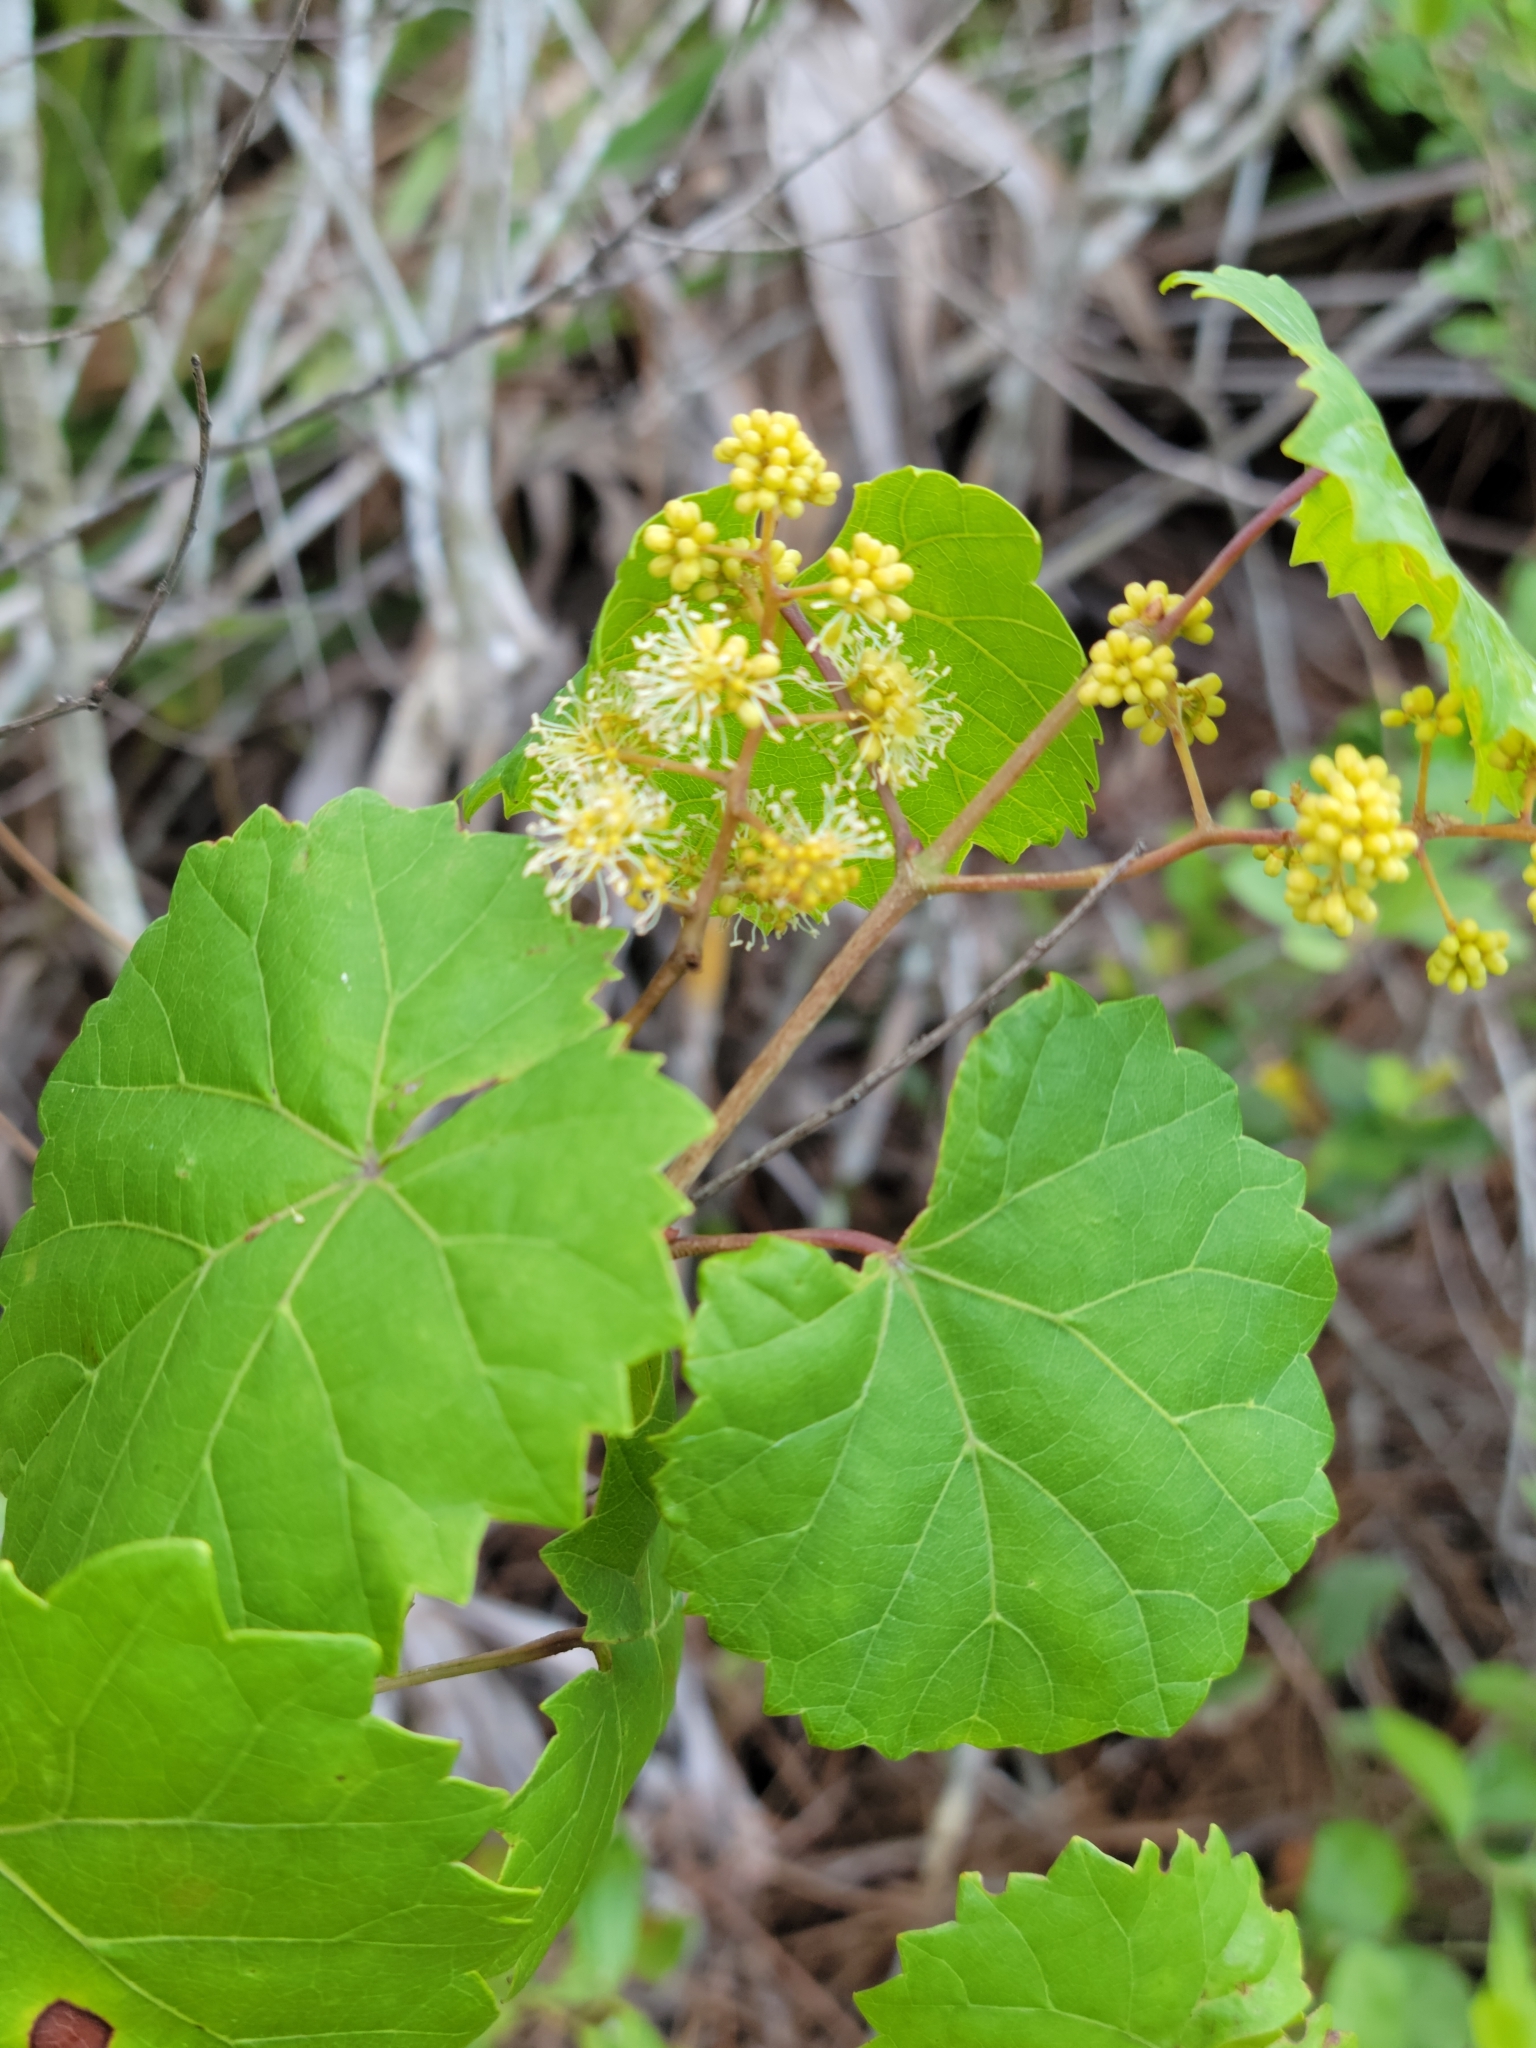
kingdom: Plantae
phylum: Tracheophyta
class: Magnoliopsida
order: Vitales
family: Vitaceae
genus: Vitis
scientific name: Vitis rotundifolia
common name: Muscadine grape
